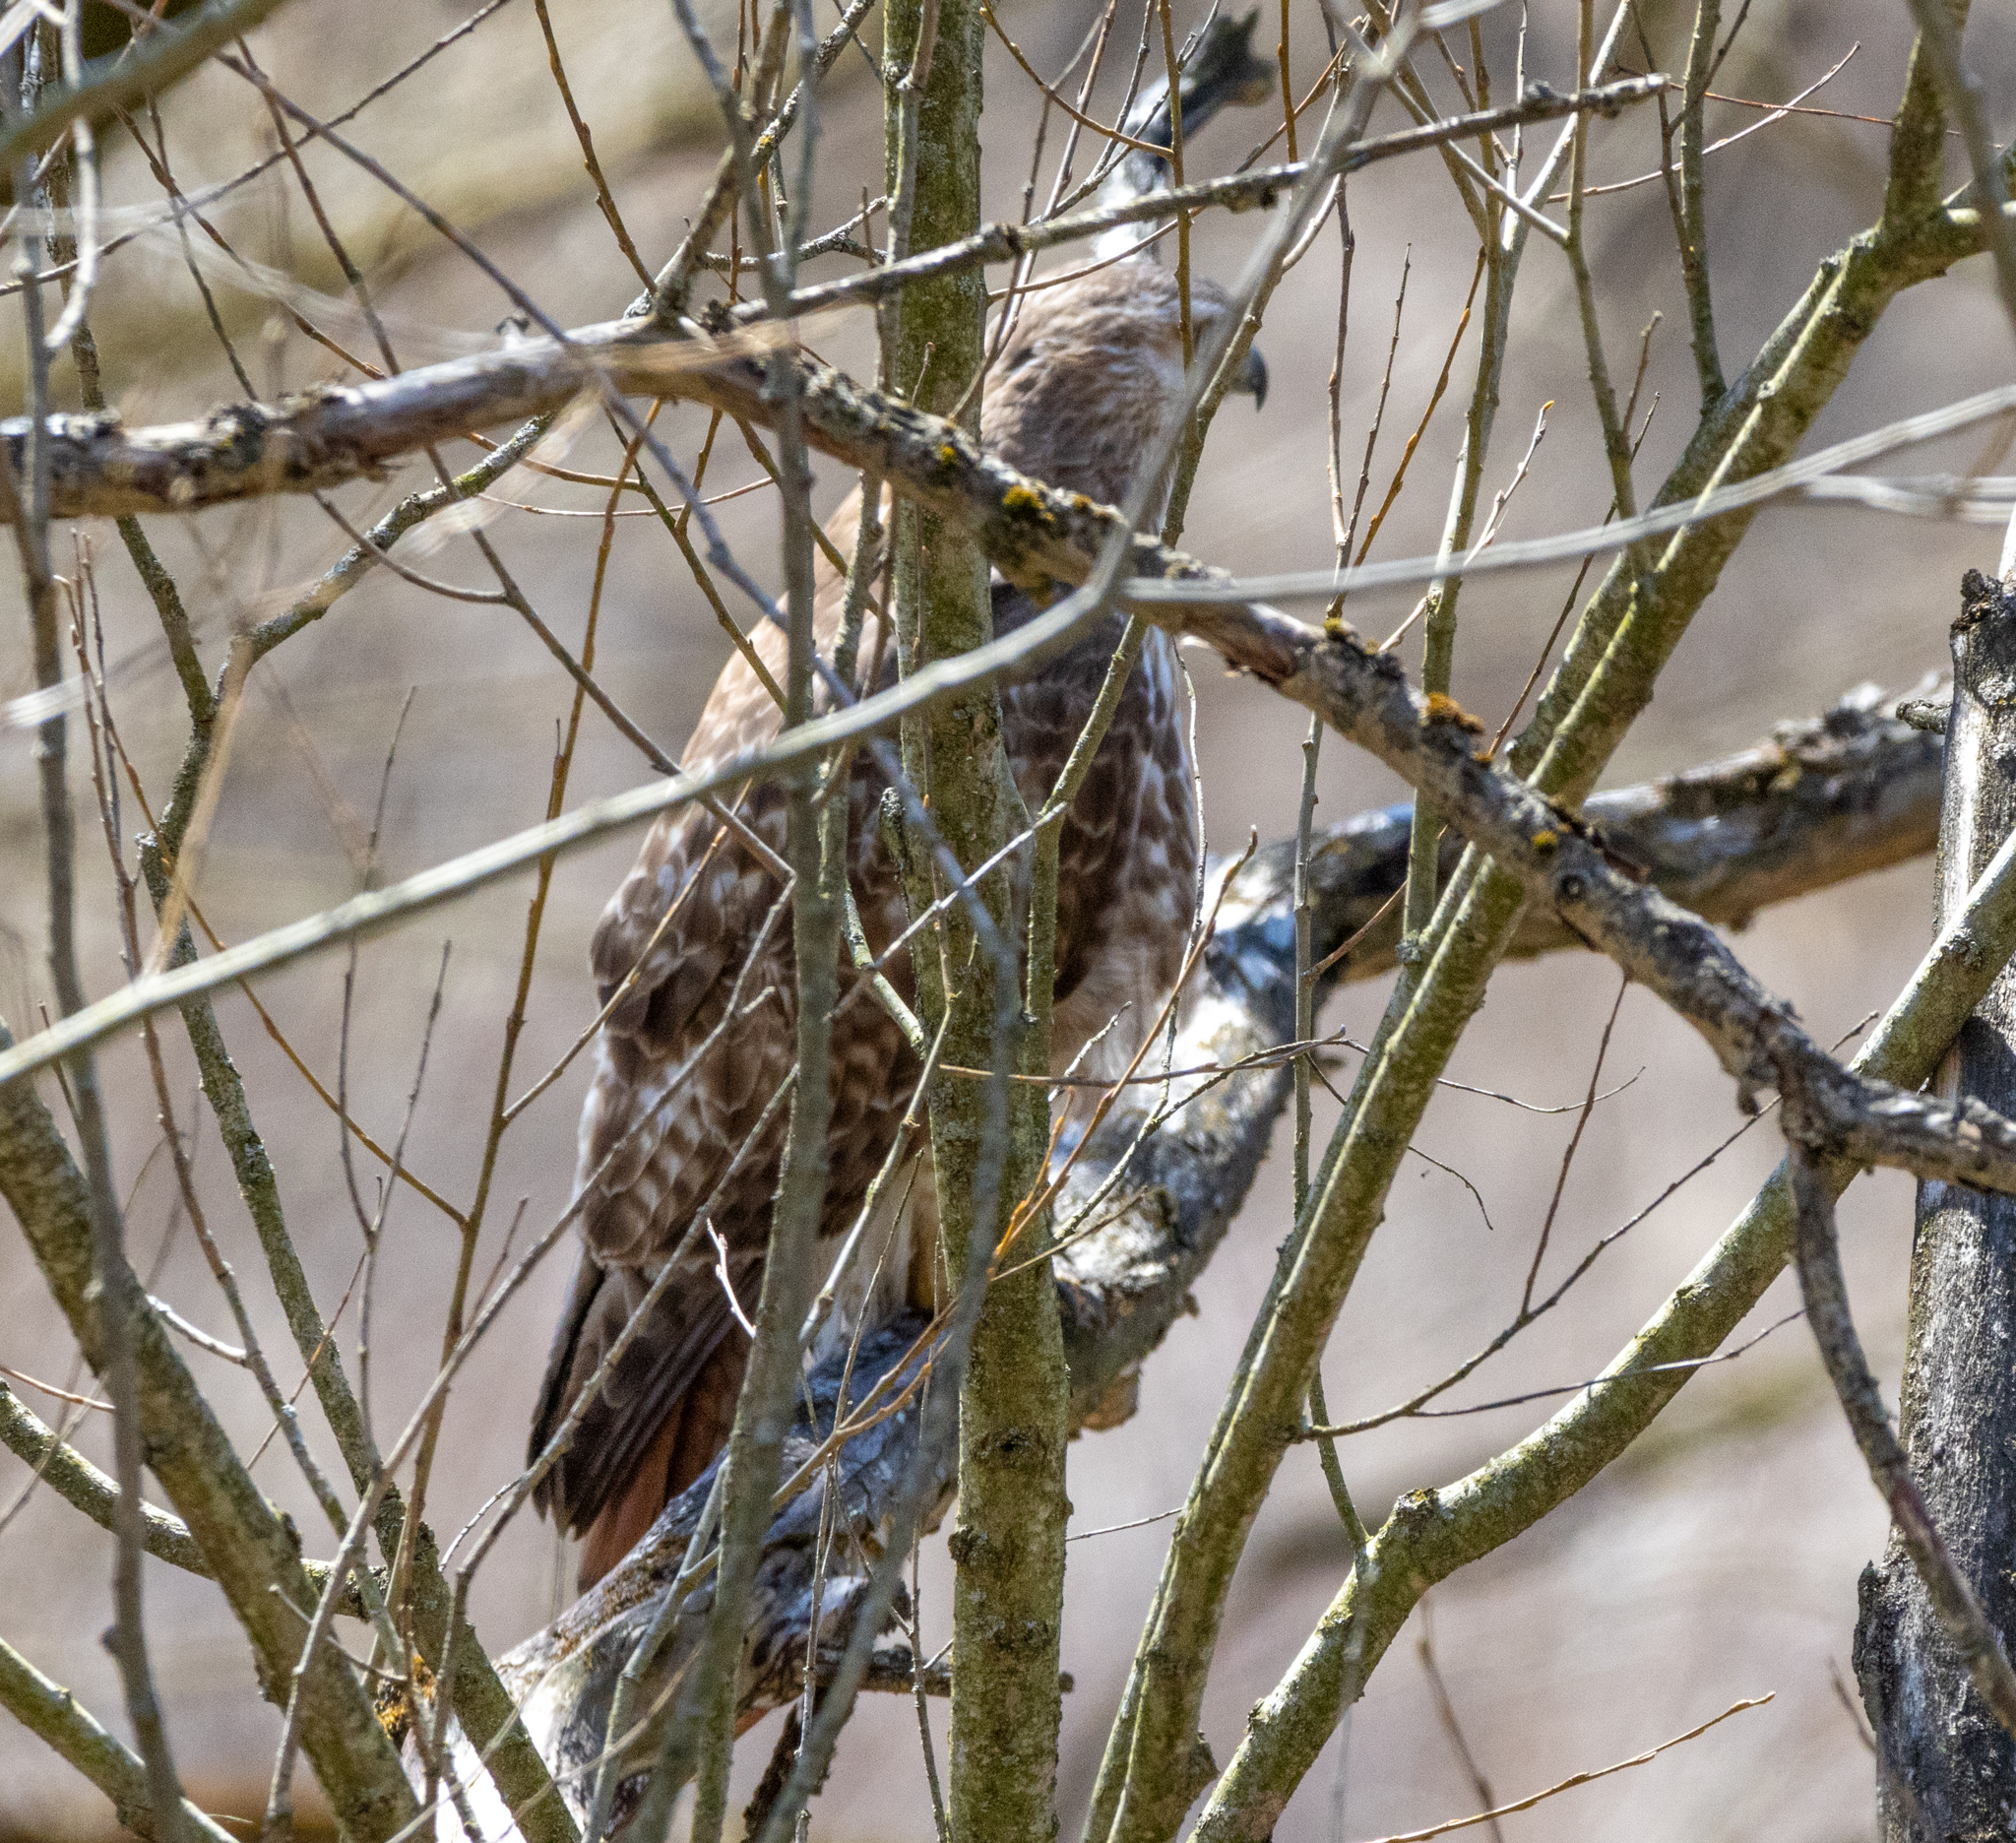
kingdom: Animalia
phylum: Chordata
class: Aves
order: Accipitriformes
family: Accipitridae
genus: Buteo
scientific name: Buteo jamaicensis
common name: Red-tailed hawk
